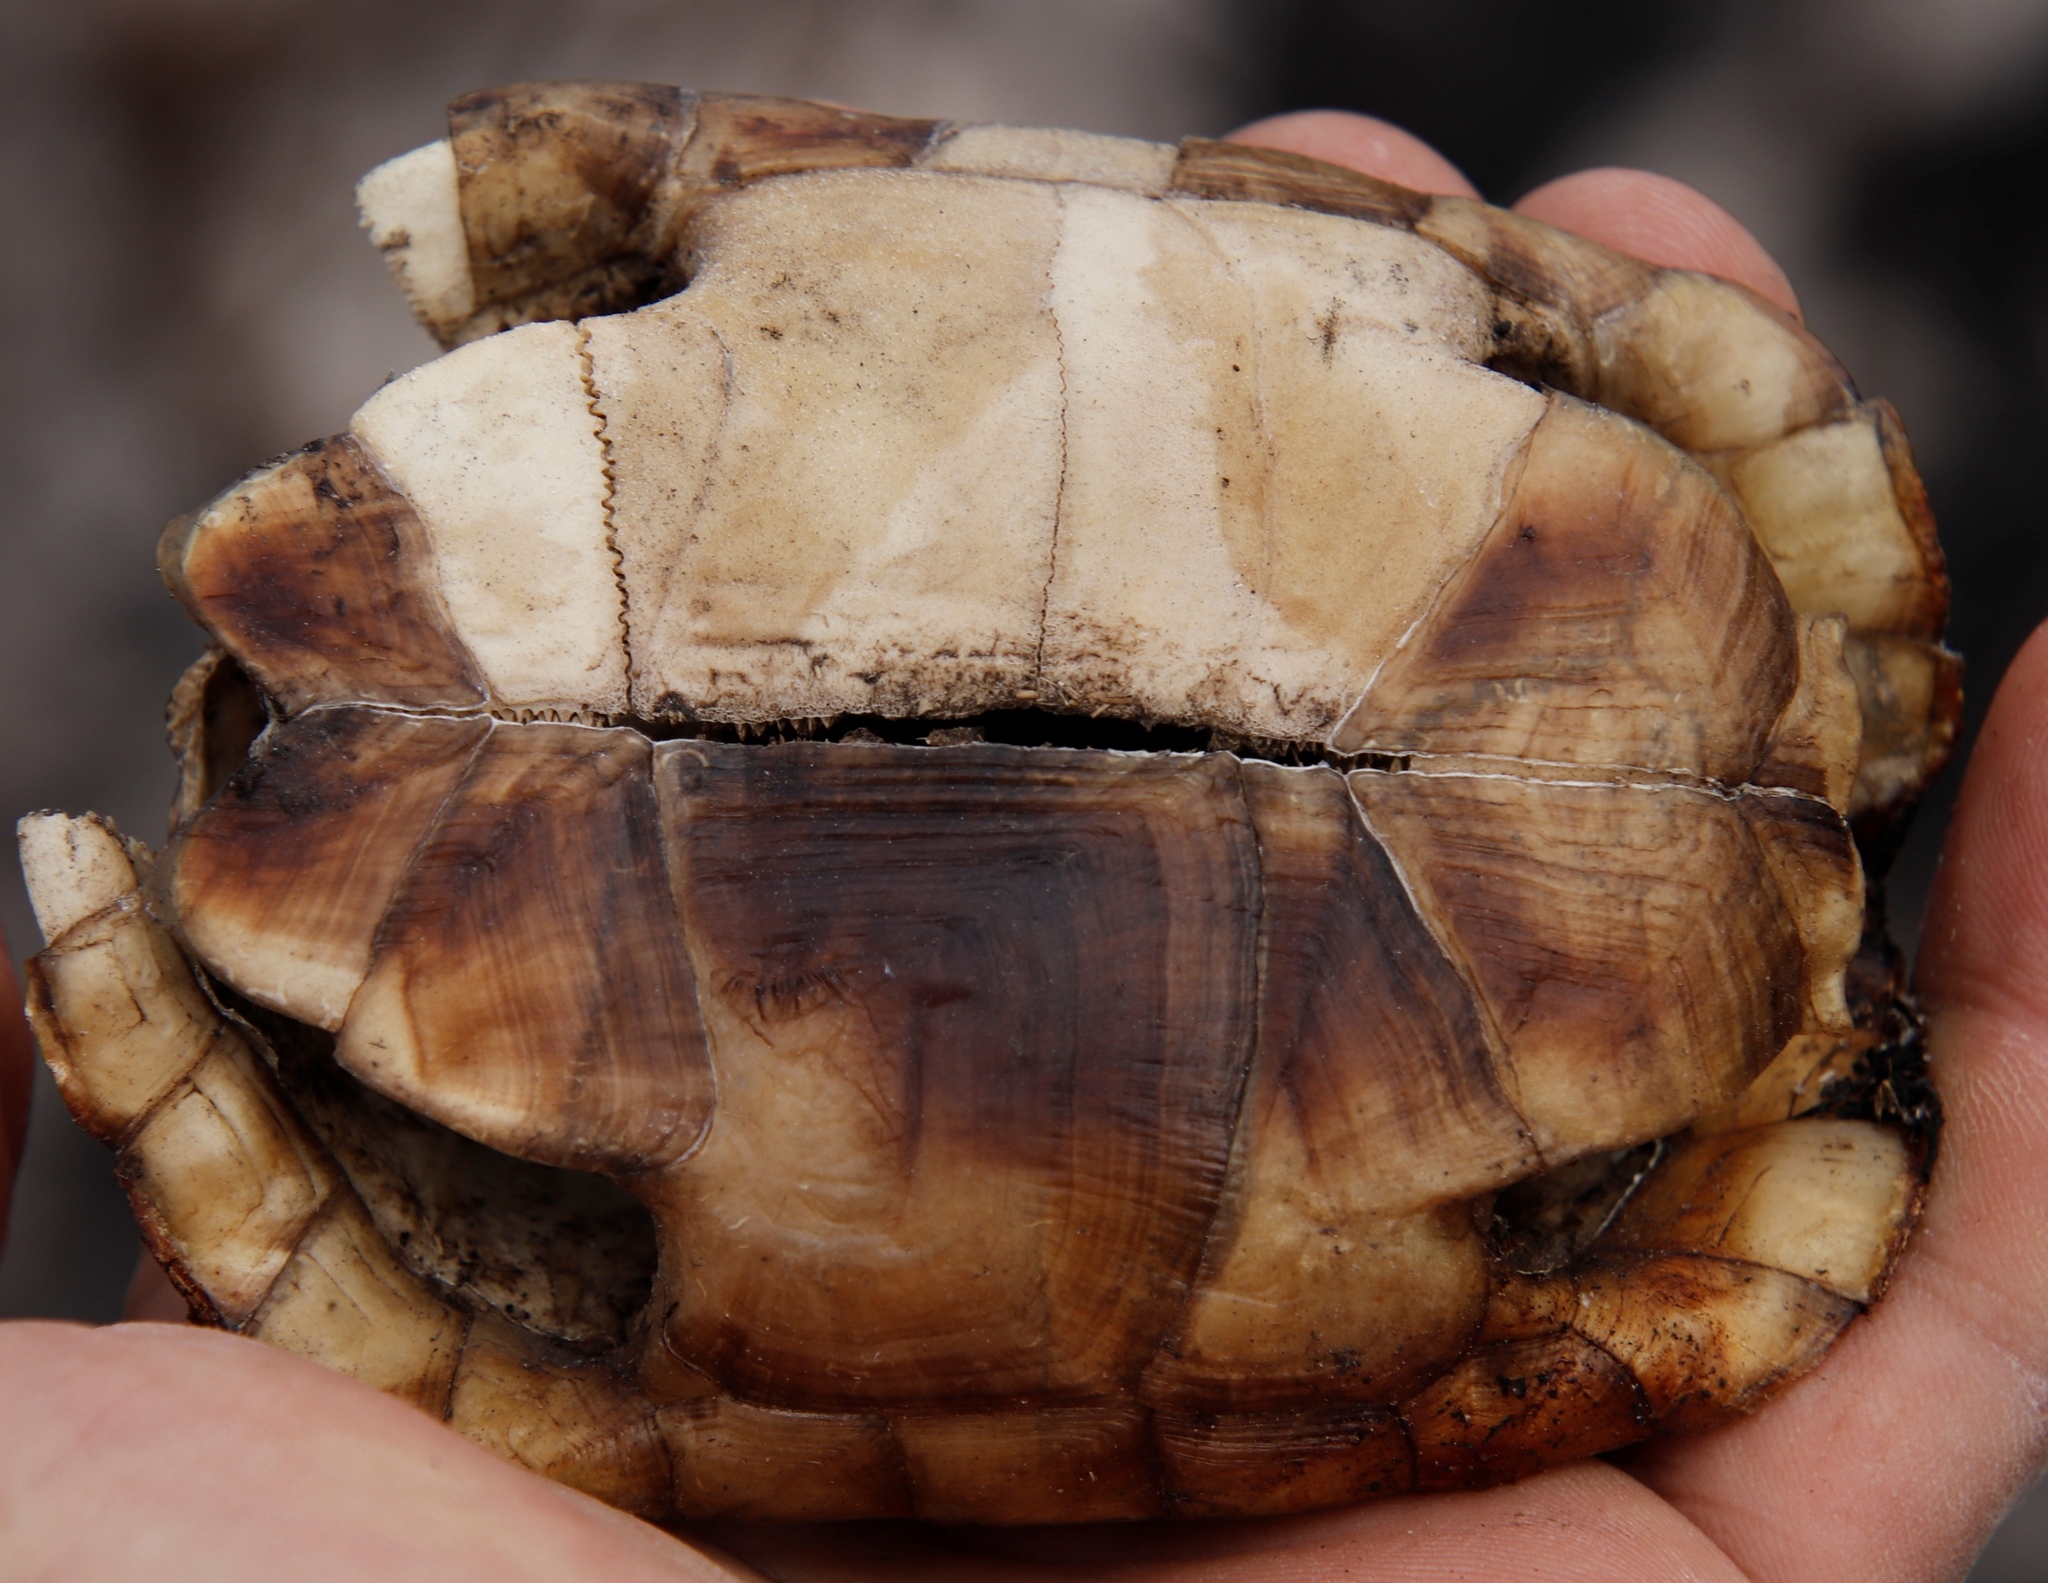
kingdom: Animalia
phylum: Chordata
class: Testudines
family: Testudinidae
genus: Homopus
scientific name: Homopus areolatus
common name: Parrot-beaked tortoise
